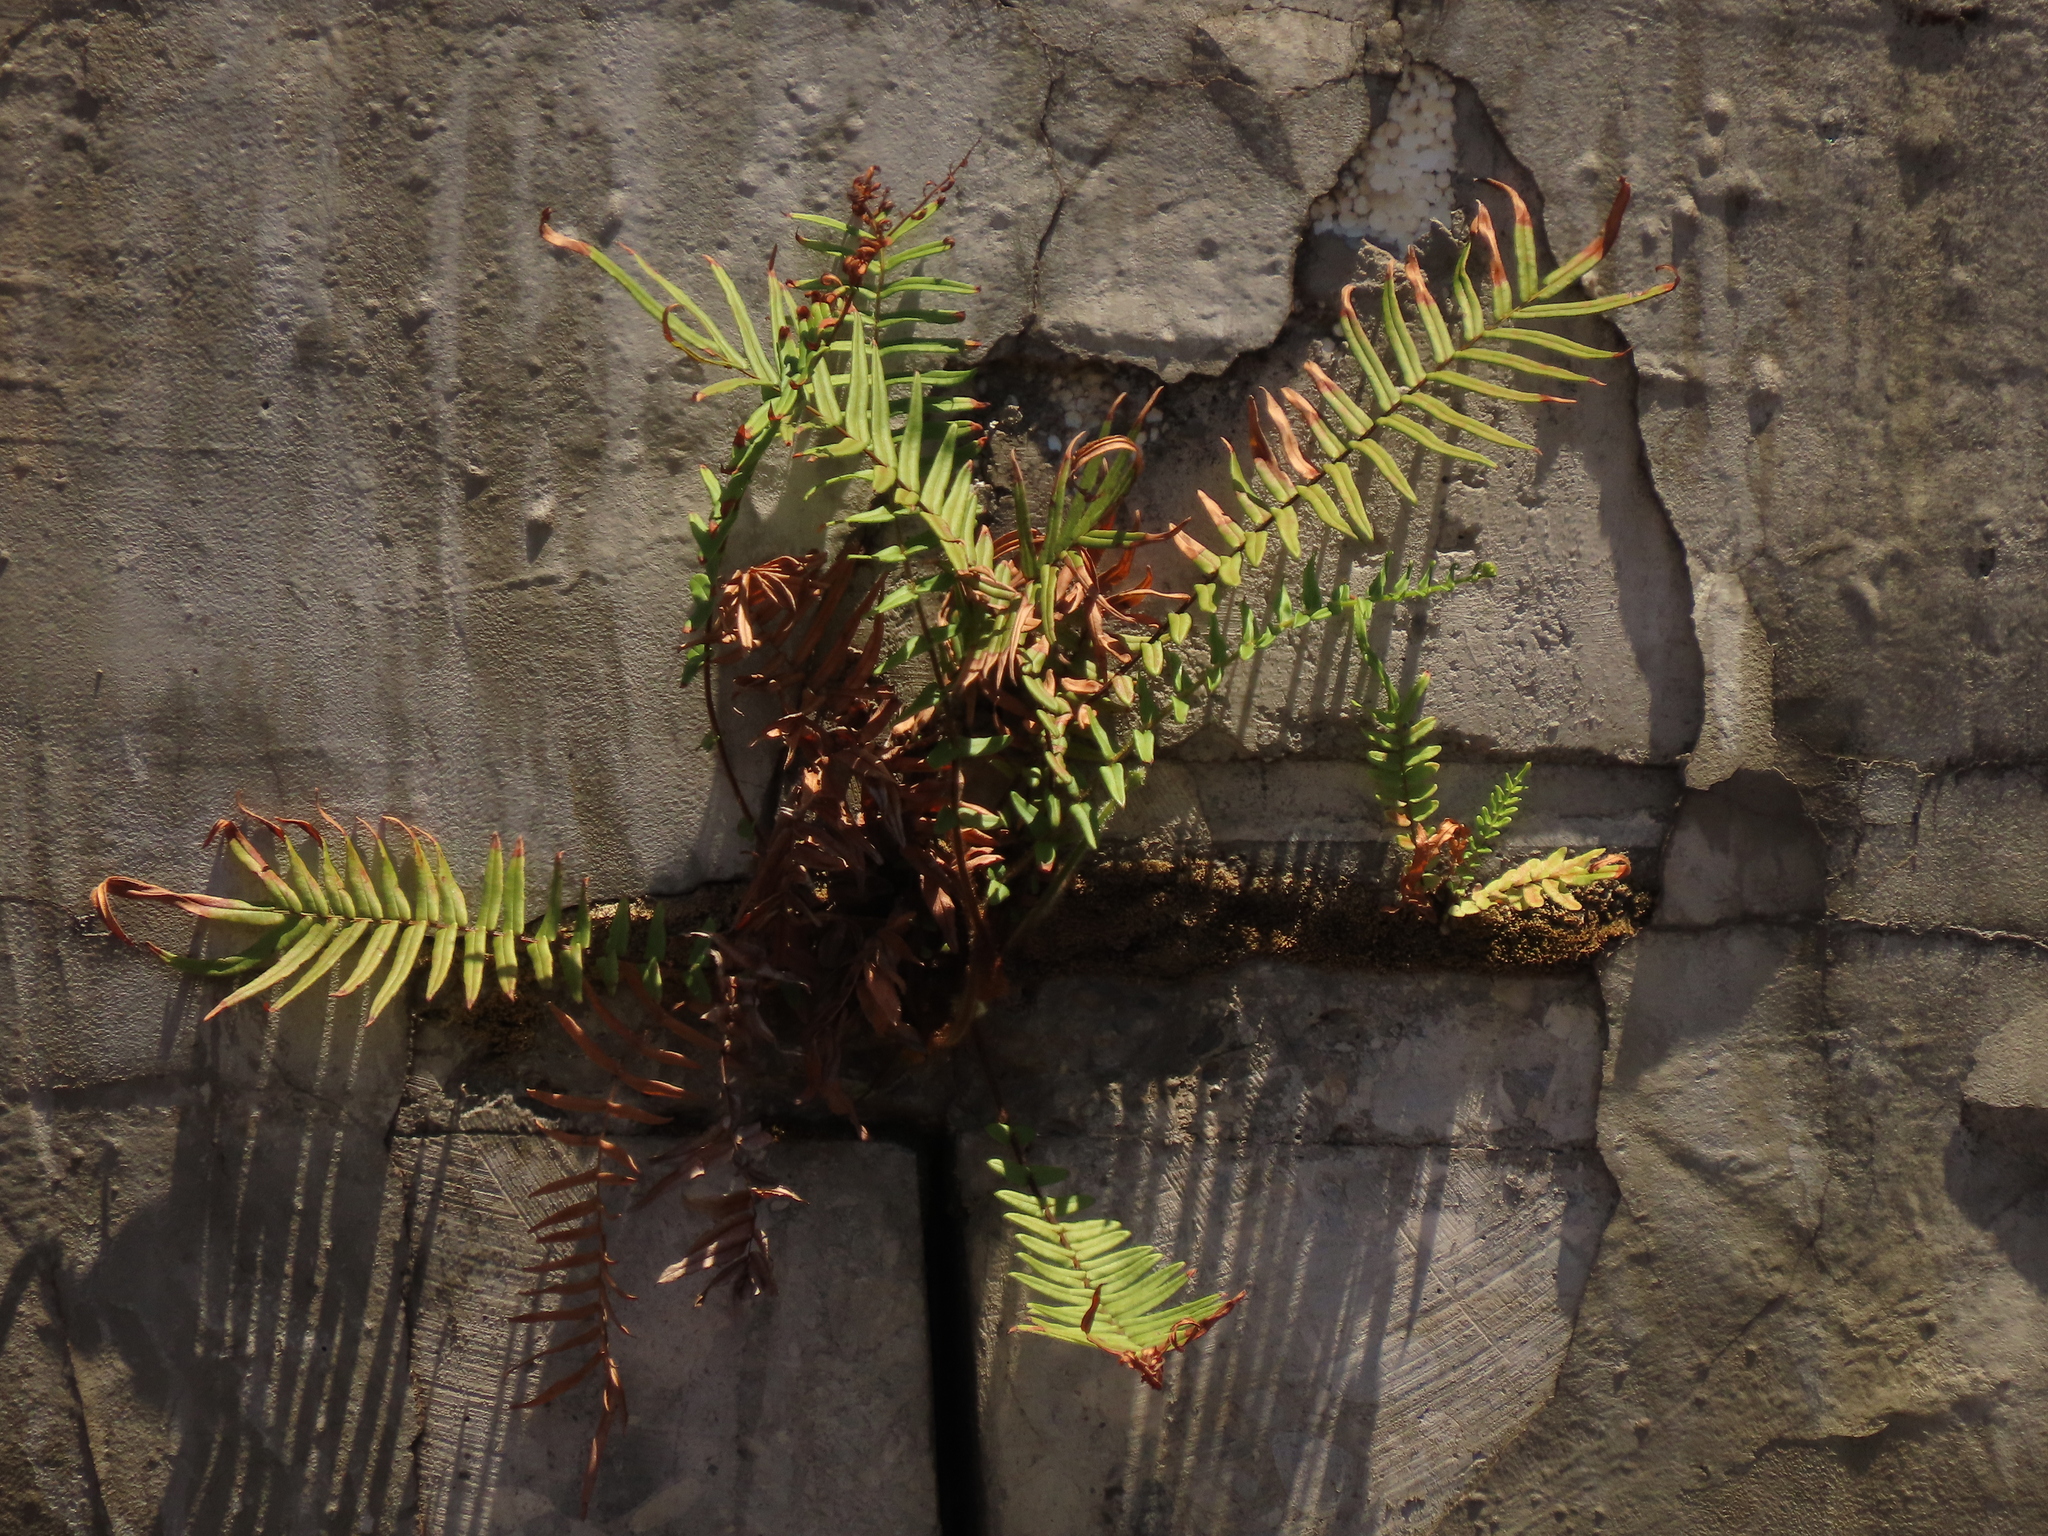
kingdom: Plantae
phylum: Tracheophyta
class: Polypodiopsida
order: Polypodiales
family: Pteridaceae
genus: Pteris
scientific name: Pteris vittata
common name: Ladder brake
